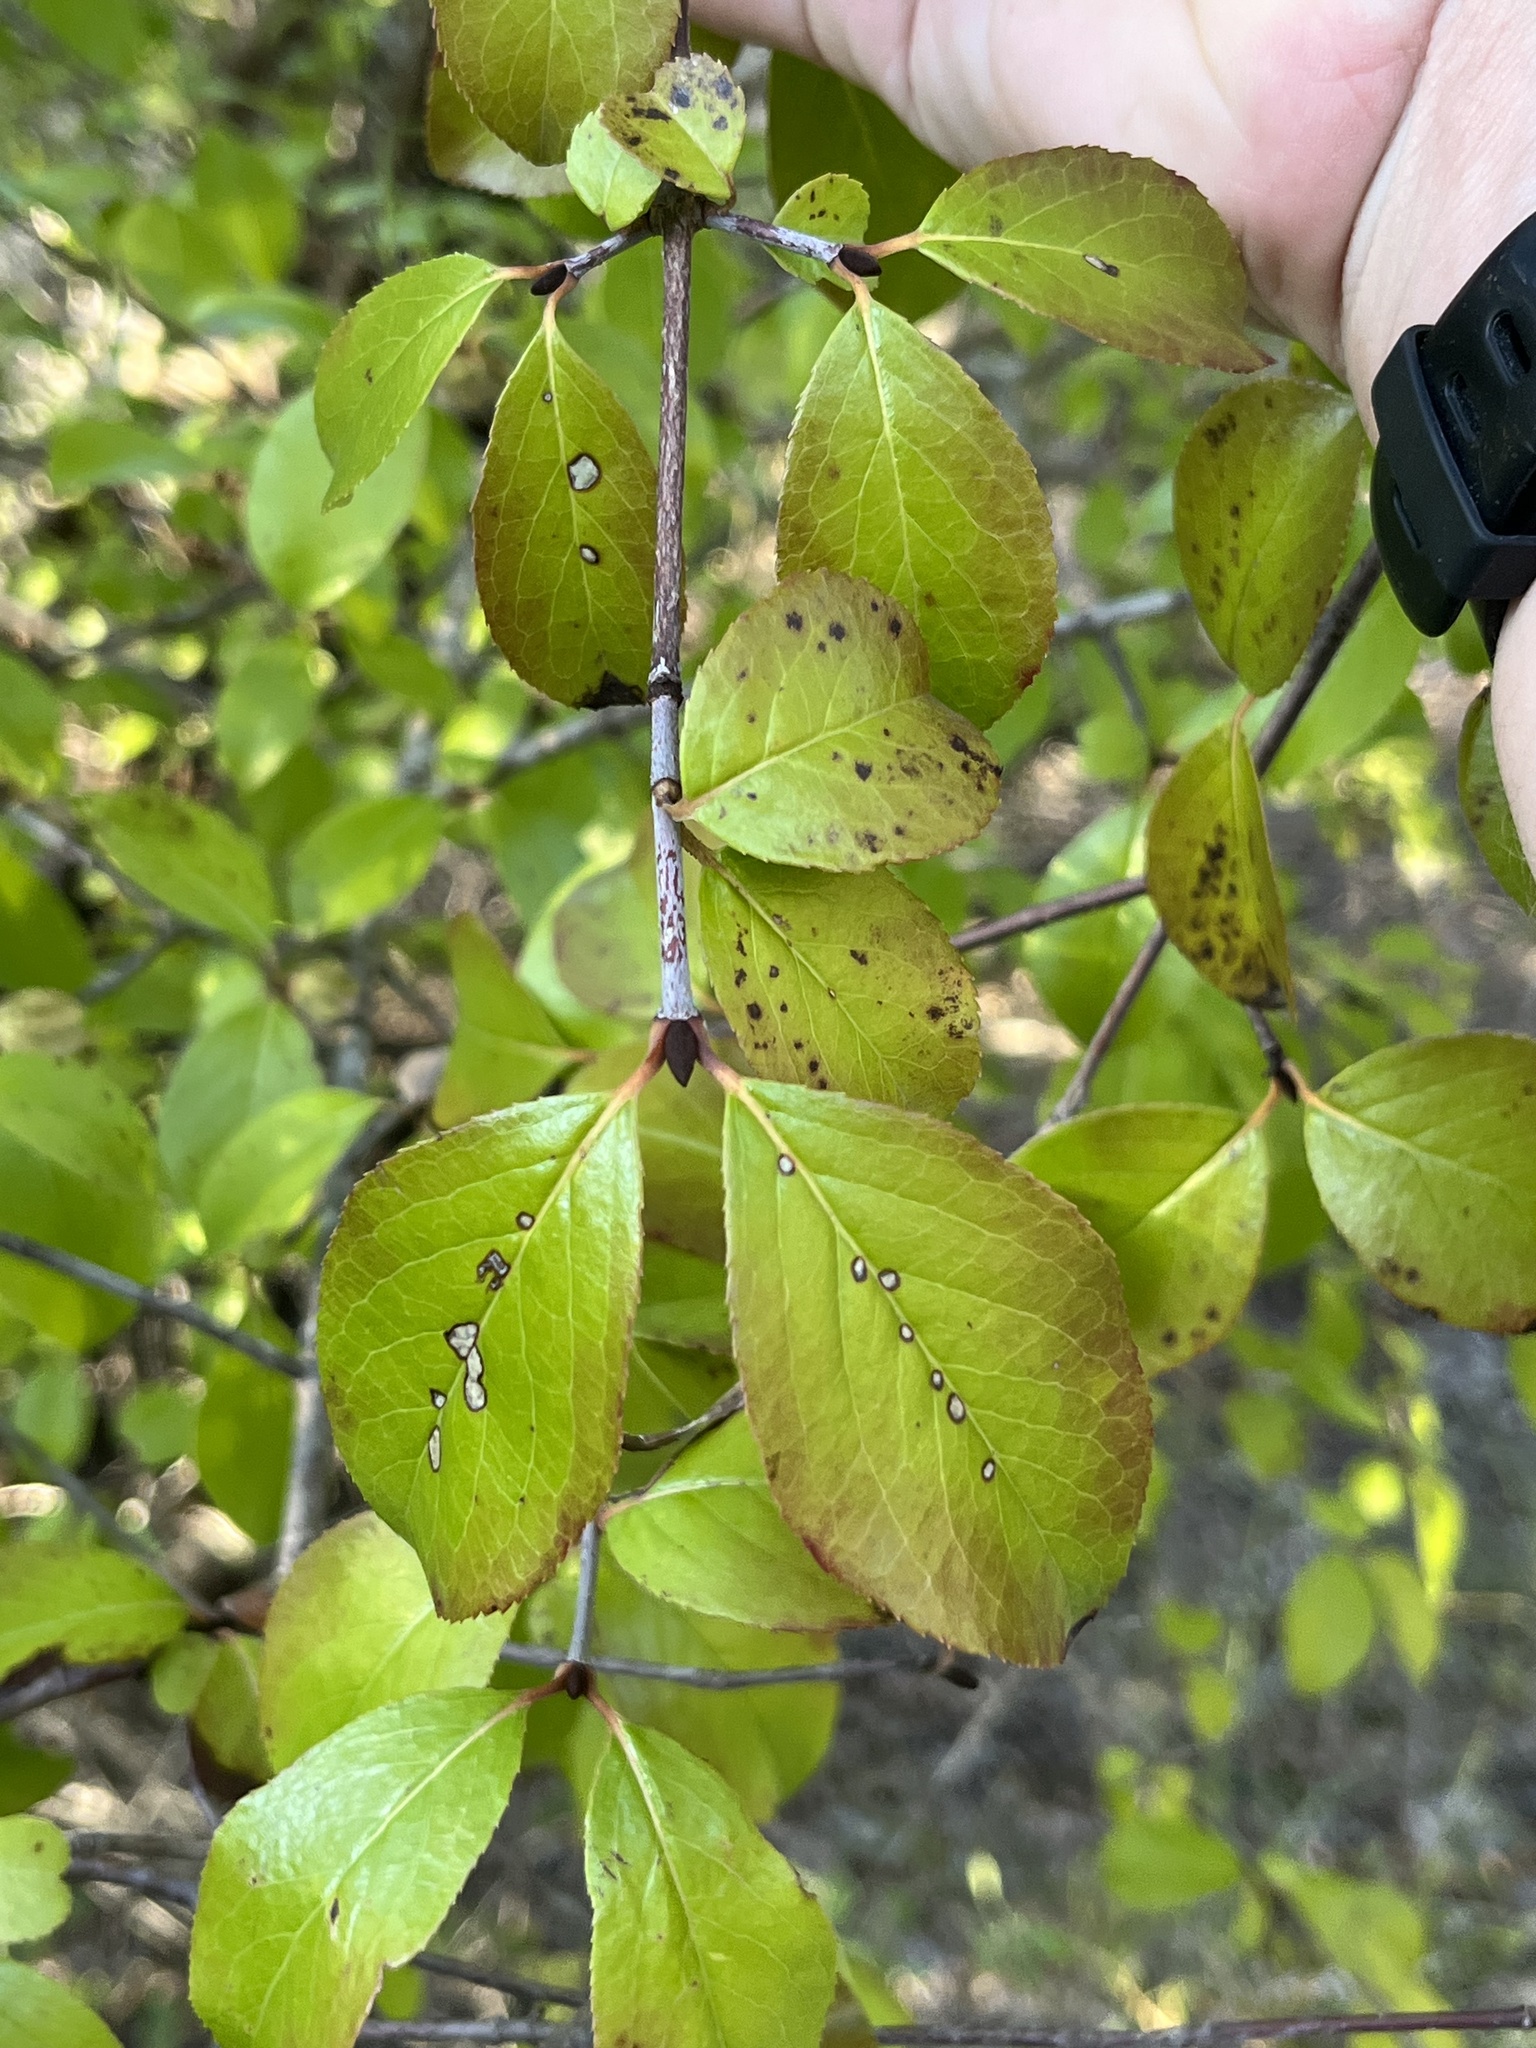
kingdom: Plantae
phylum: Tracheophyta
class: Magnoliopsida
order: Dipsacales
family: Viburnaceae
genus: Viburnum
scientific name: Viburnum rufidulum
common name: Blue haw
